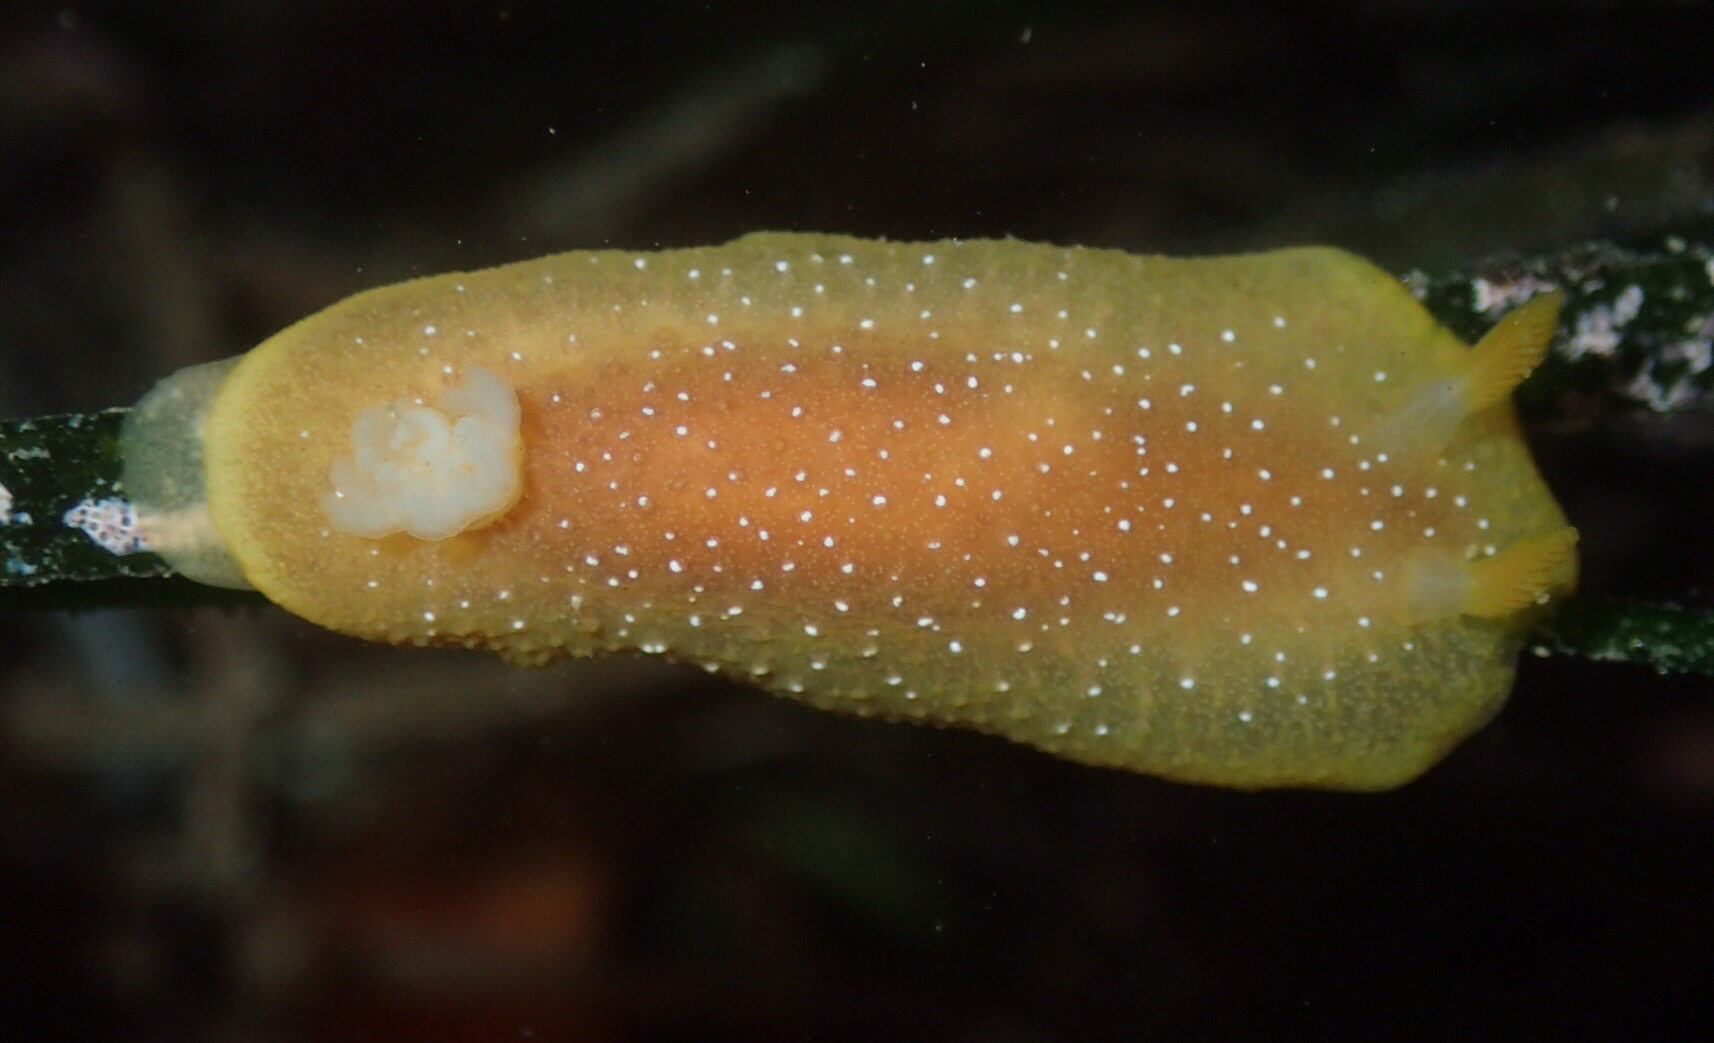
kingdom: Animalia
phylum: Mollusca
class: Gastropoda
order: Nudibranchia
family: Dendrodorididae
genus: Doriopsilla
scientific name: Doriopsilla fulva
